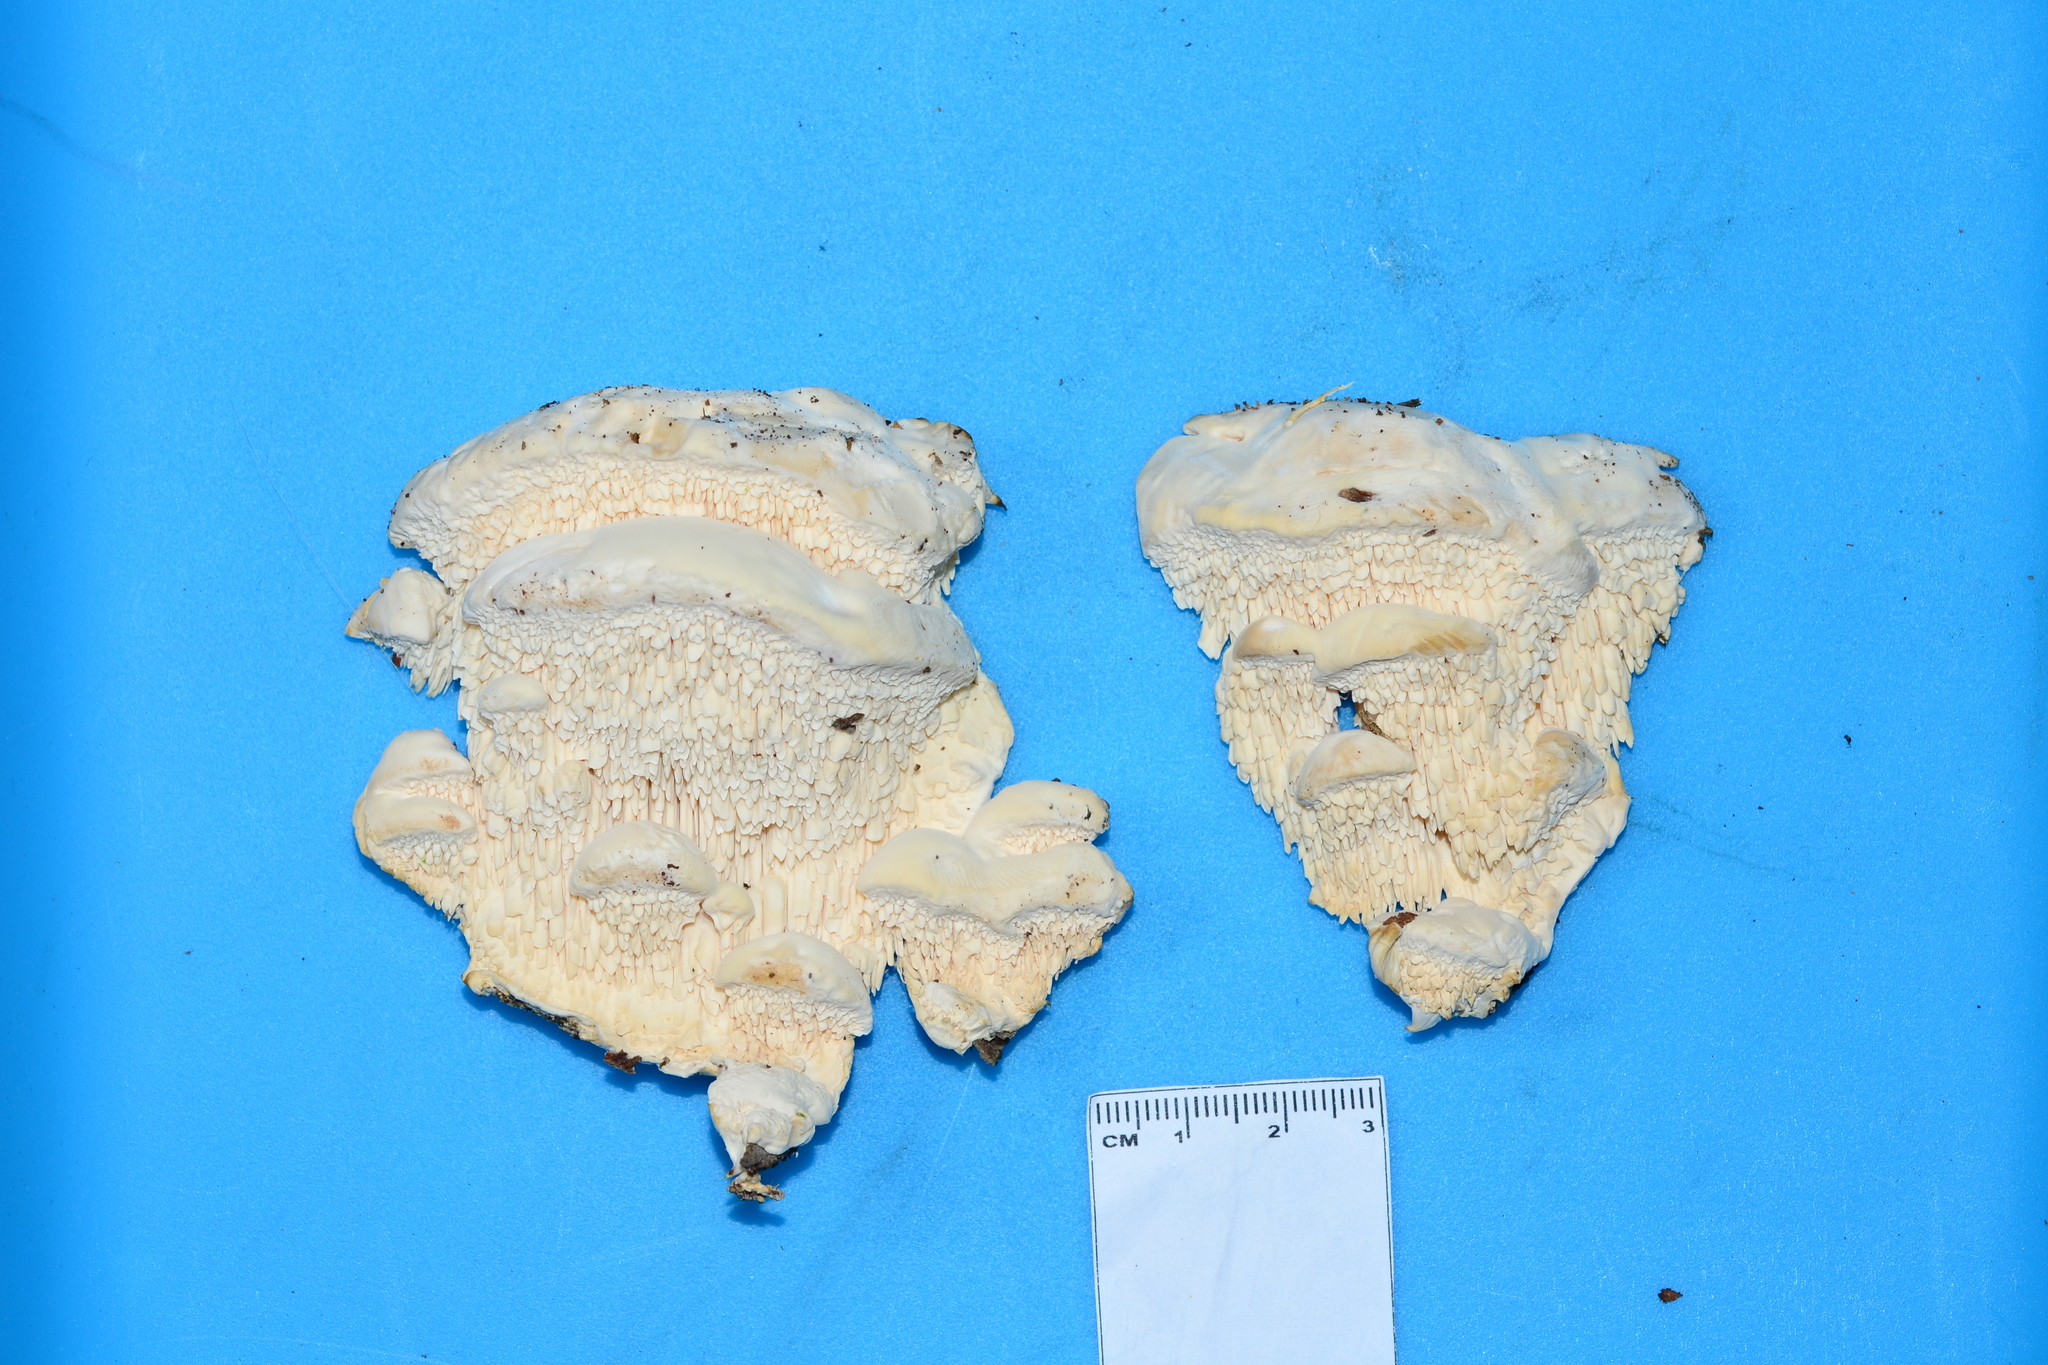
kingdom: Fungi
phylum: Basidiomycota
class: Agaricomycetes
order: Polyporales
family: Meruliaceae
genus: Irpiciporus
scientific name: Irpiciporus pachyodon
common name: Marshmallow polypore
